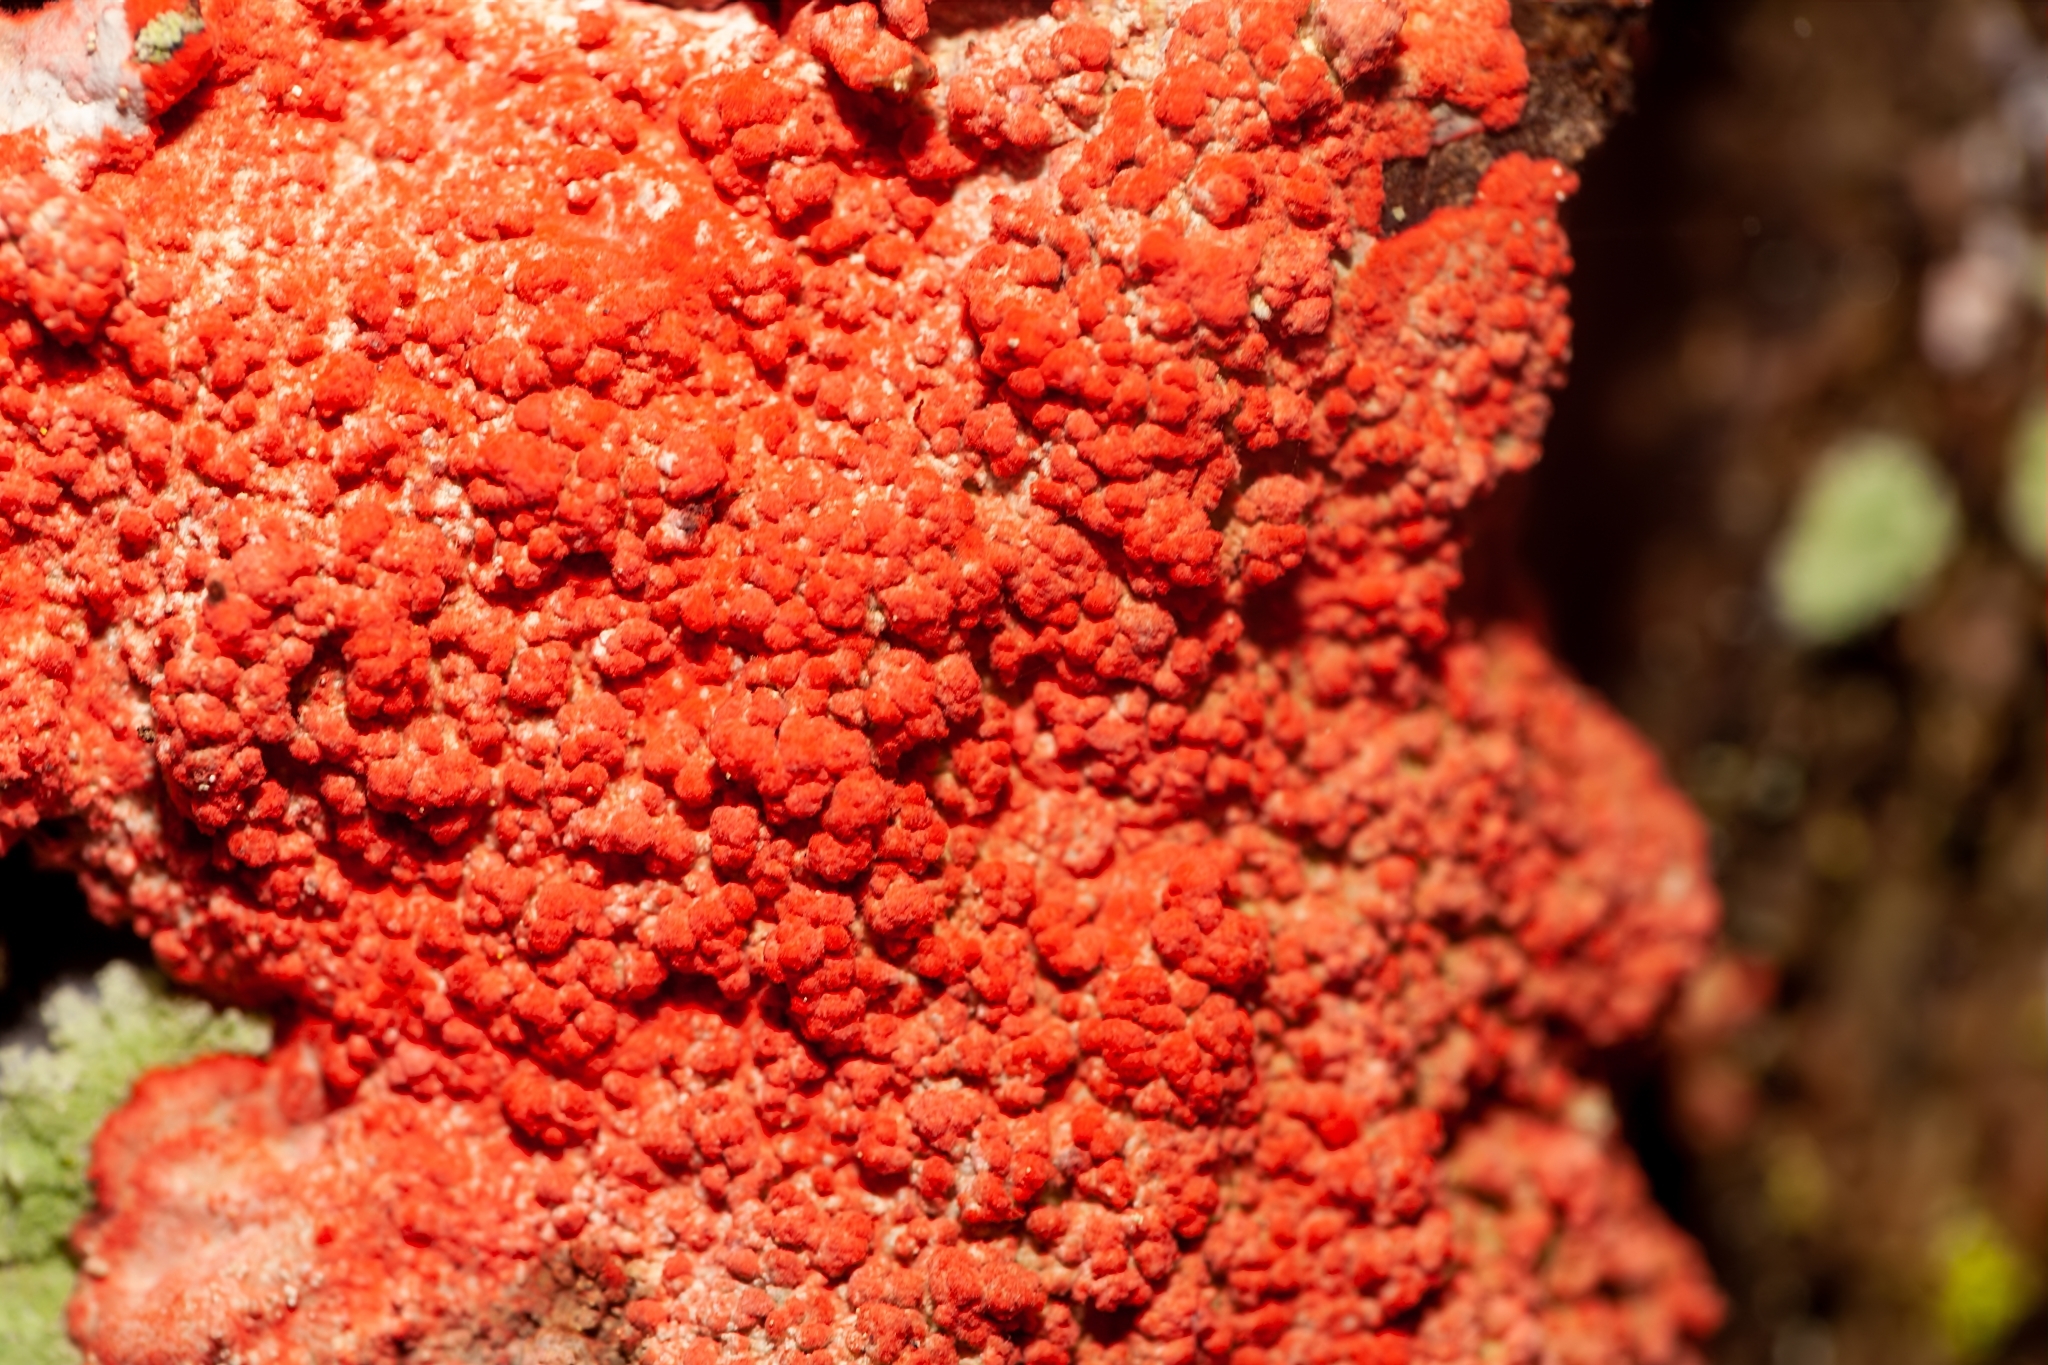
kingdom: Fungi
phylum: Ascomycota
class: Arthoniomycetes
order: Arthoniales
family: Arthoniaceae
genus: Herpothallon
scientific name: Herpothallon rubrocinctum
